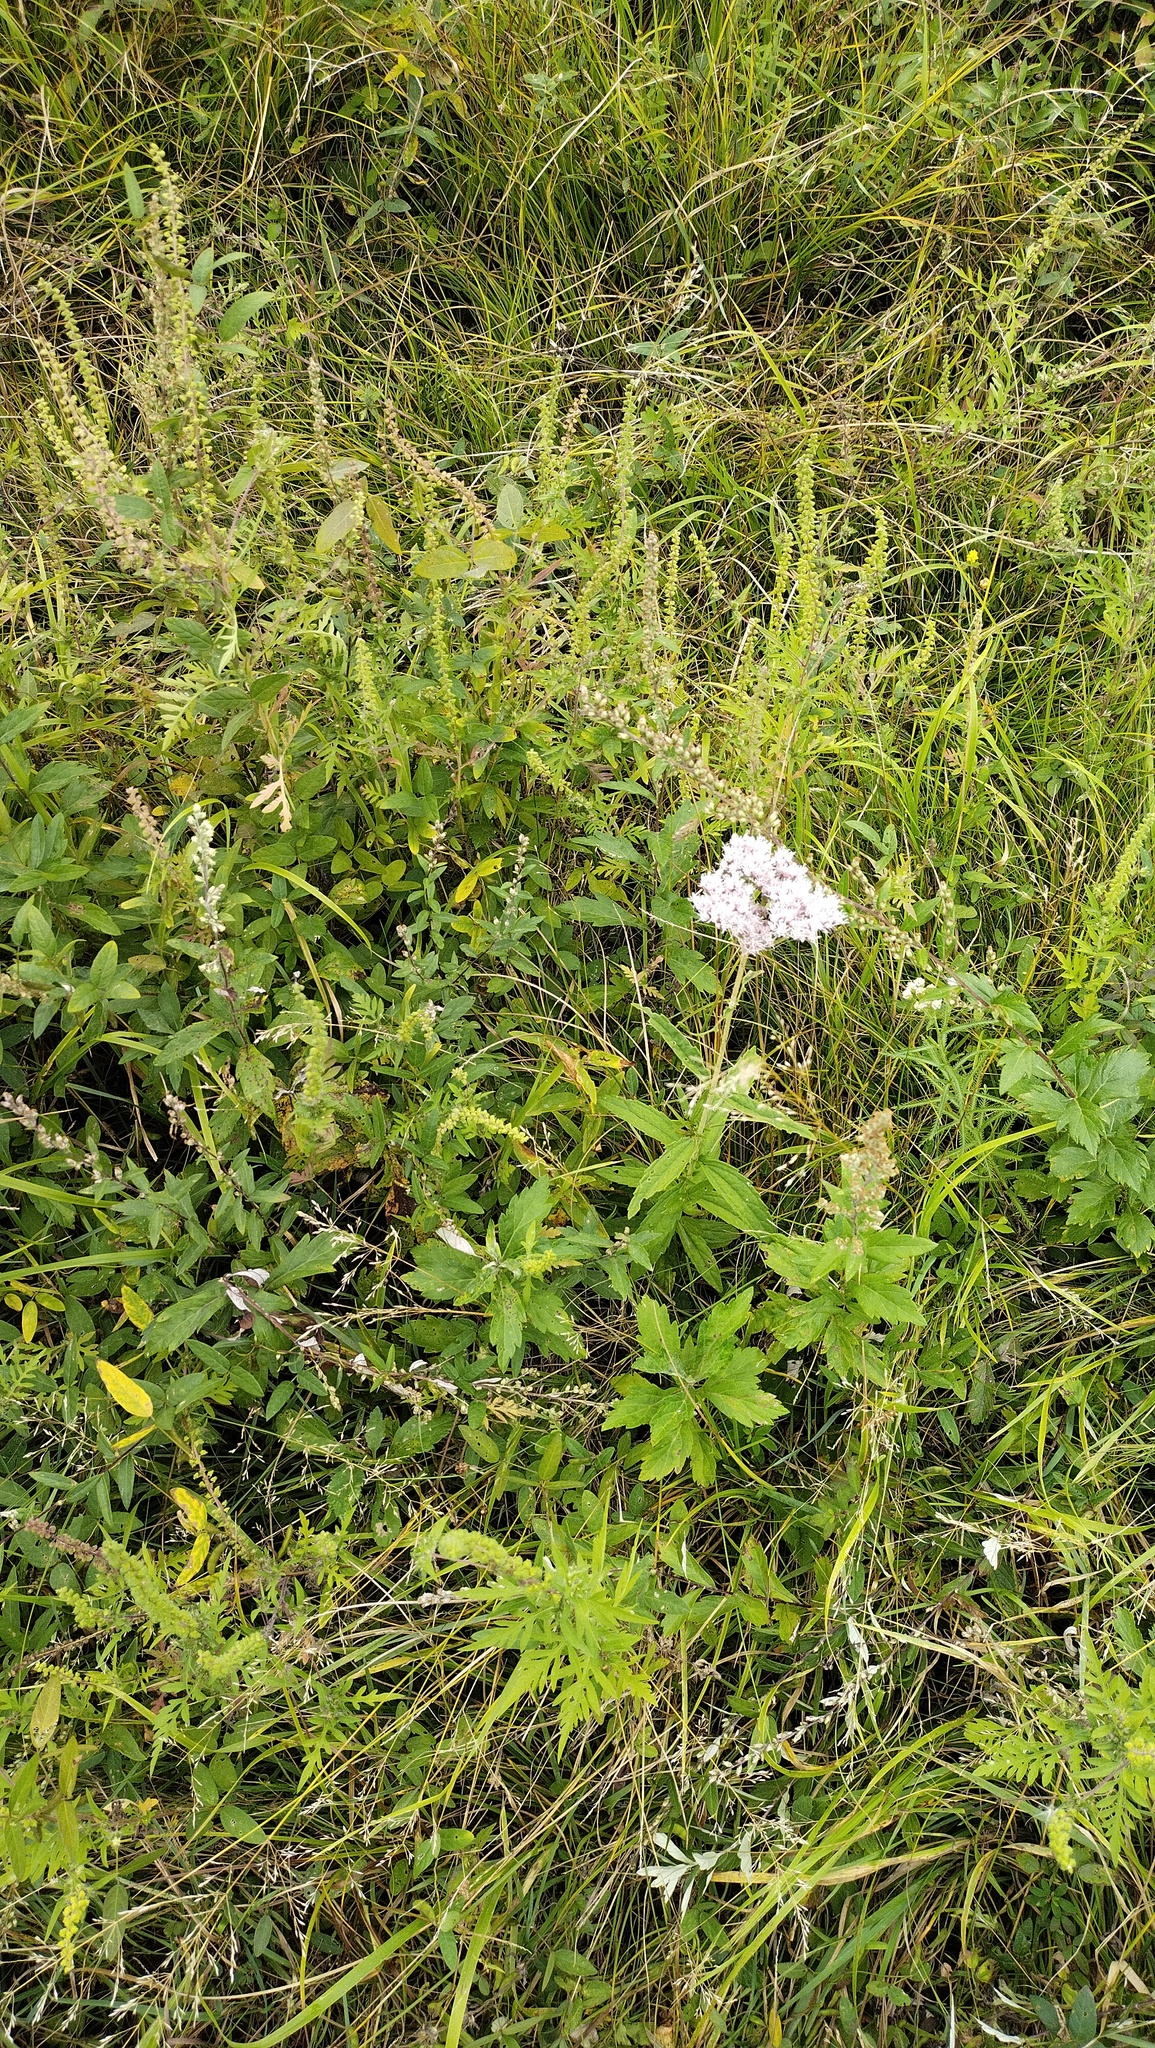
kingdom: Plantae
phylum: Tracheophyta
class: Magnoliopsida
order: Asterales
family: Asteraceae
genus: Eupatorium
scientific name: Eupatorium lindleyanum
